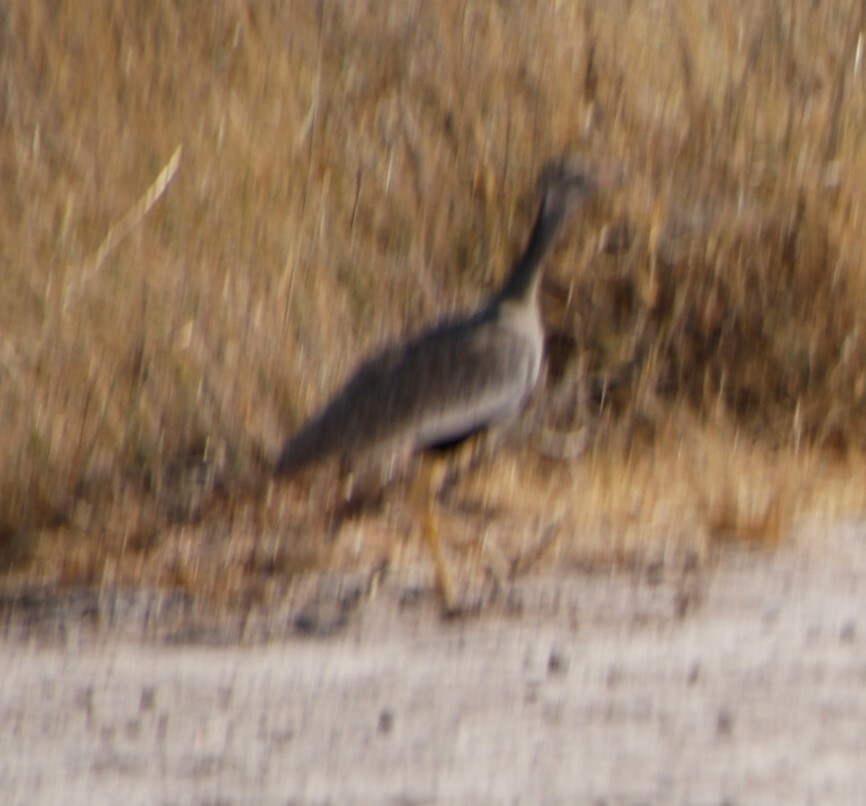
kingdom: Animalia
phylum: Chordata
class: Aves
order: Otidiformes
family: Otididae
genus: Afrotis
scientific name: Afrotis afraoides
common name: Northern black korhaan
